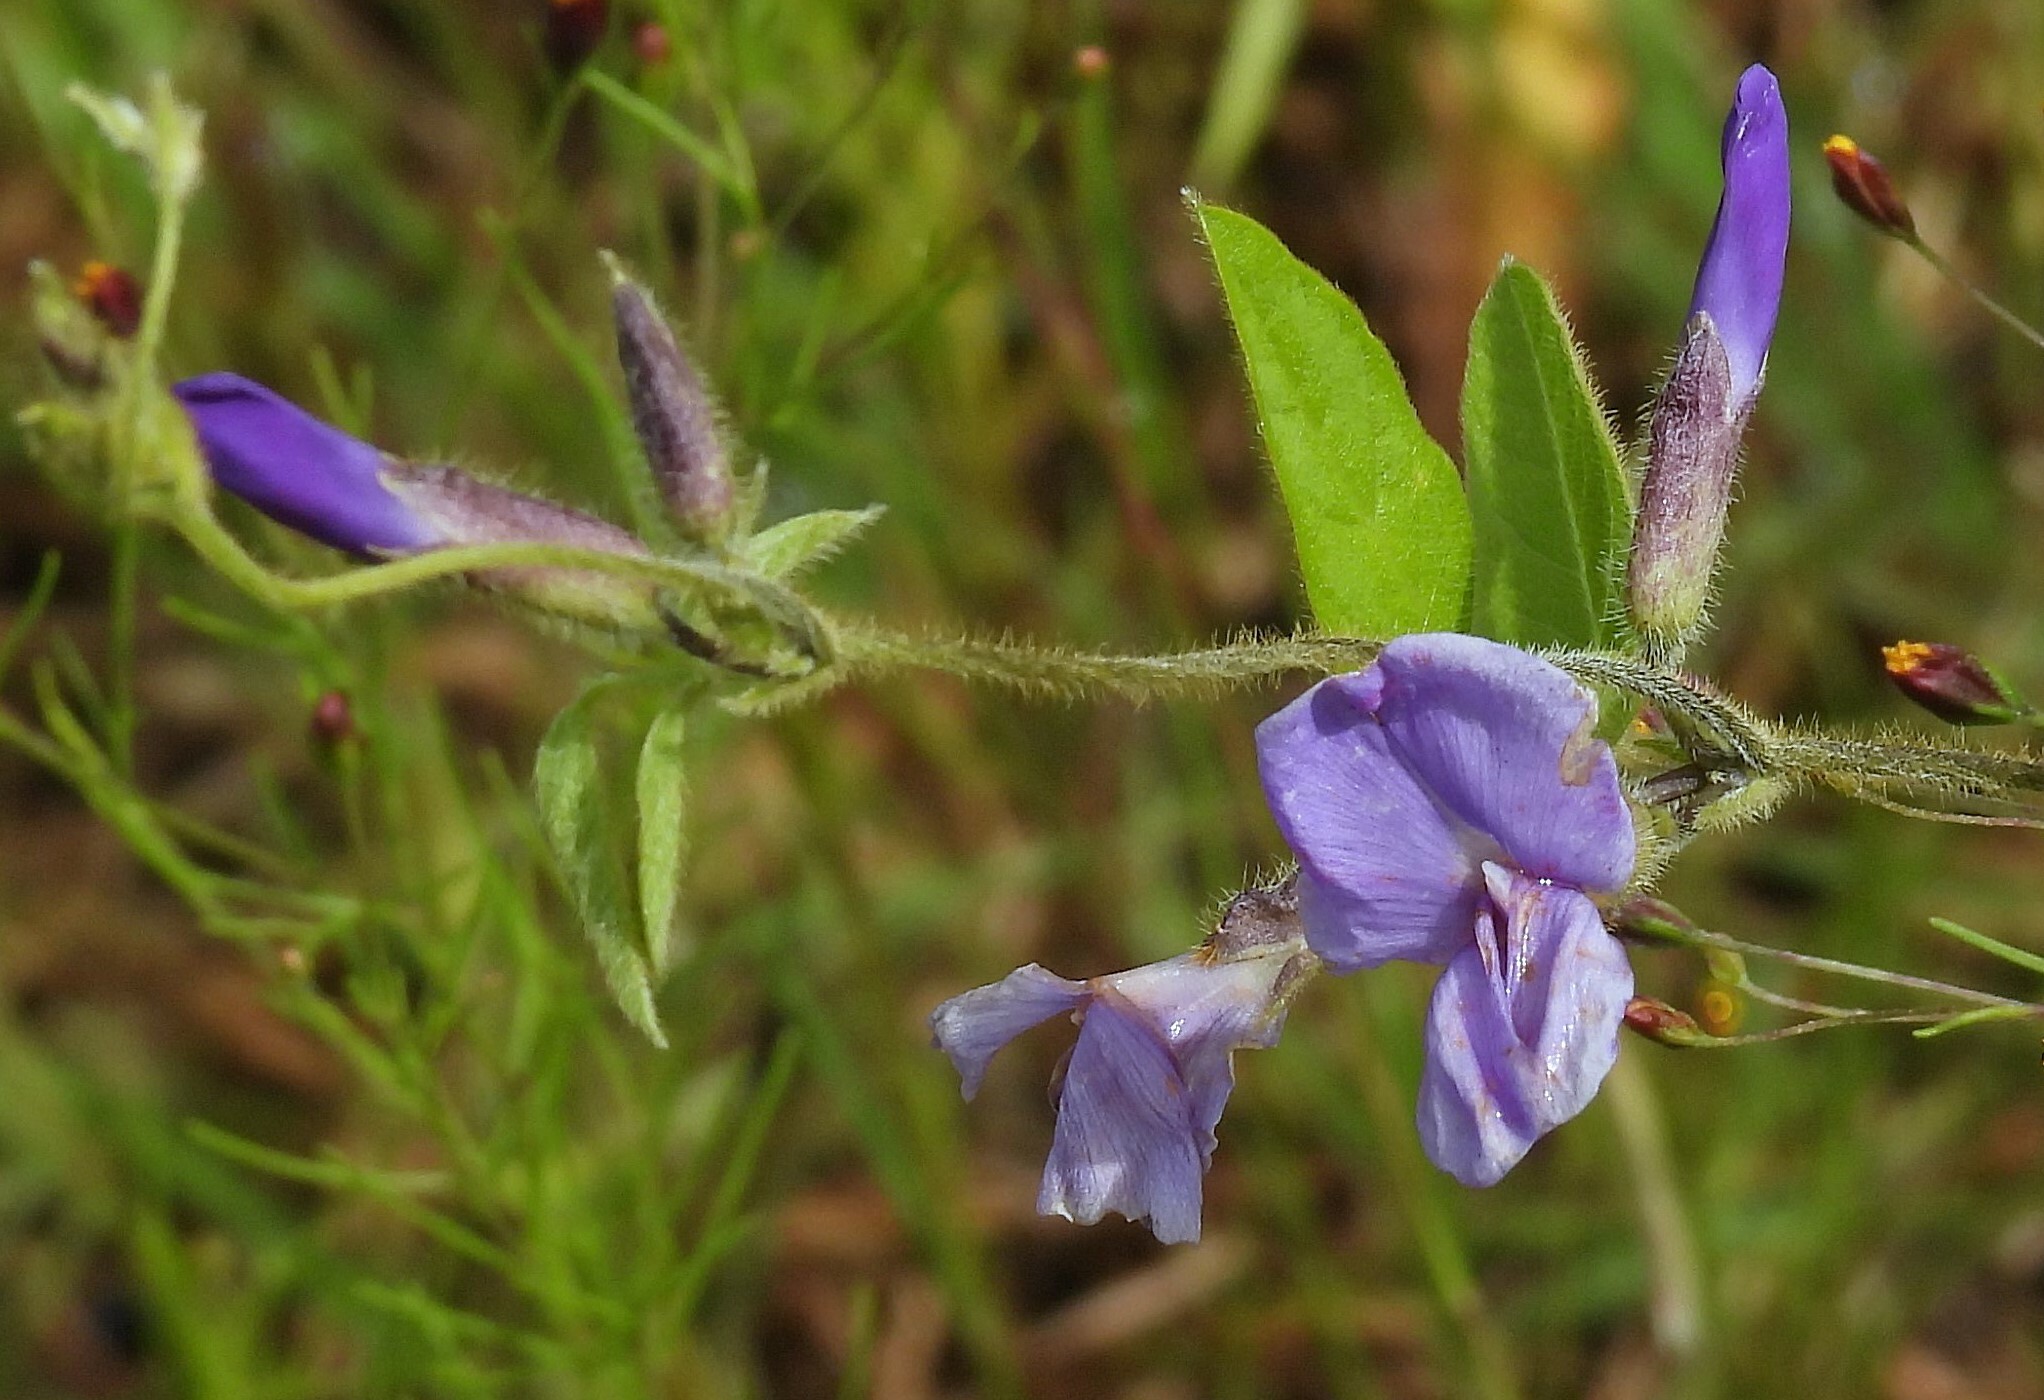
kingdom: Plantae
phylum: Tracheophyta
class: Magnoliopsida
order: Fabales
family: Fabaceae
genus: Cologania
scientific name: Cologania broussonetii
